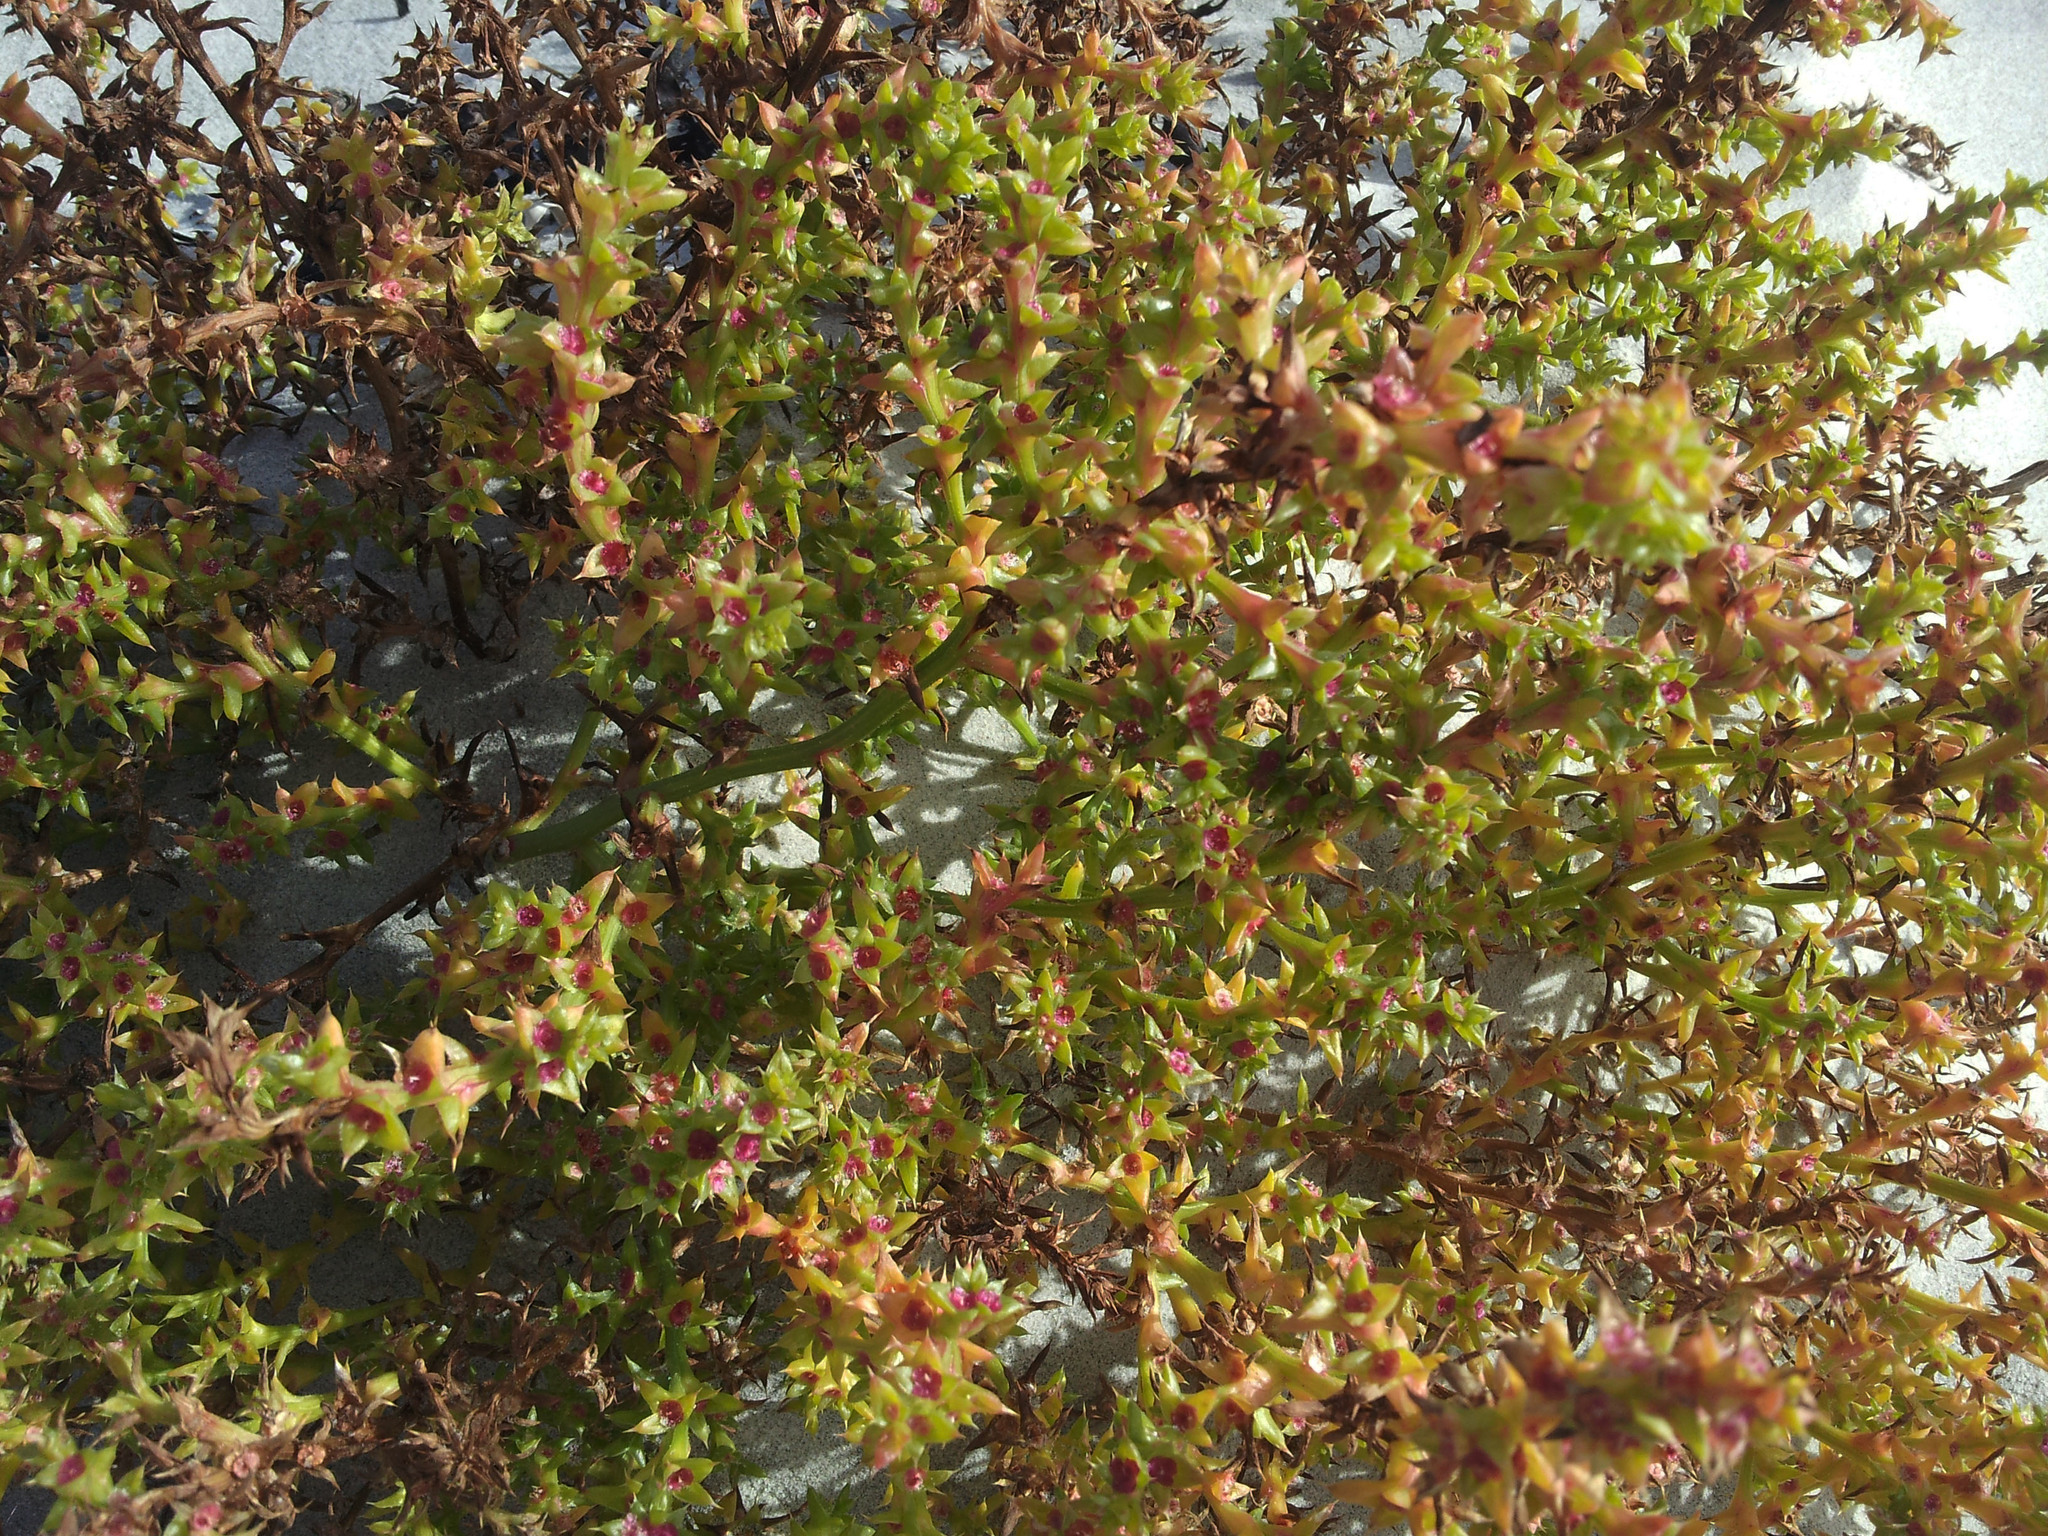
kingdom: Plantae
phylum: Tracheophyta
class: Magnoliopsida
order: Caryophyllales
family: Amaranthaceae
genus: Salsola
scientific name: Salsola kali
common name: Saltwort
